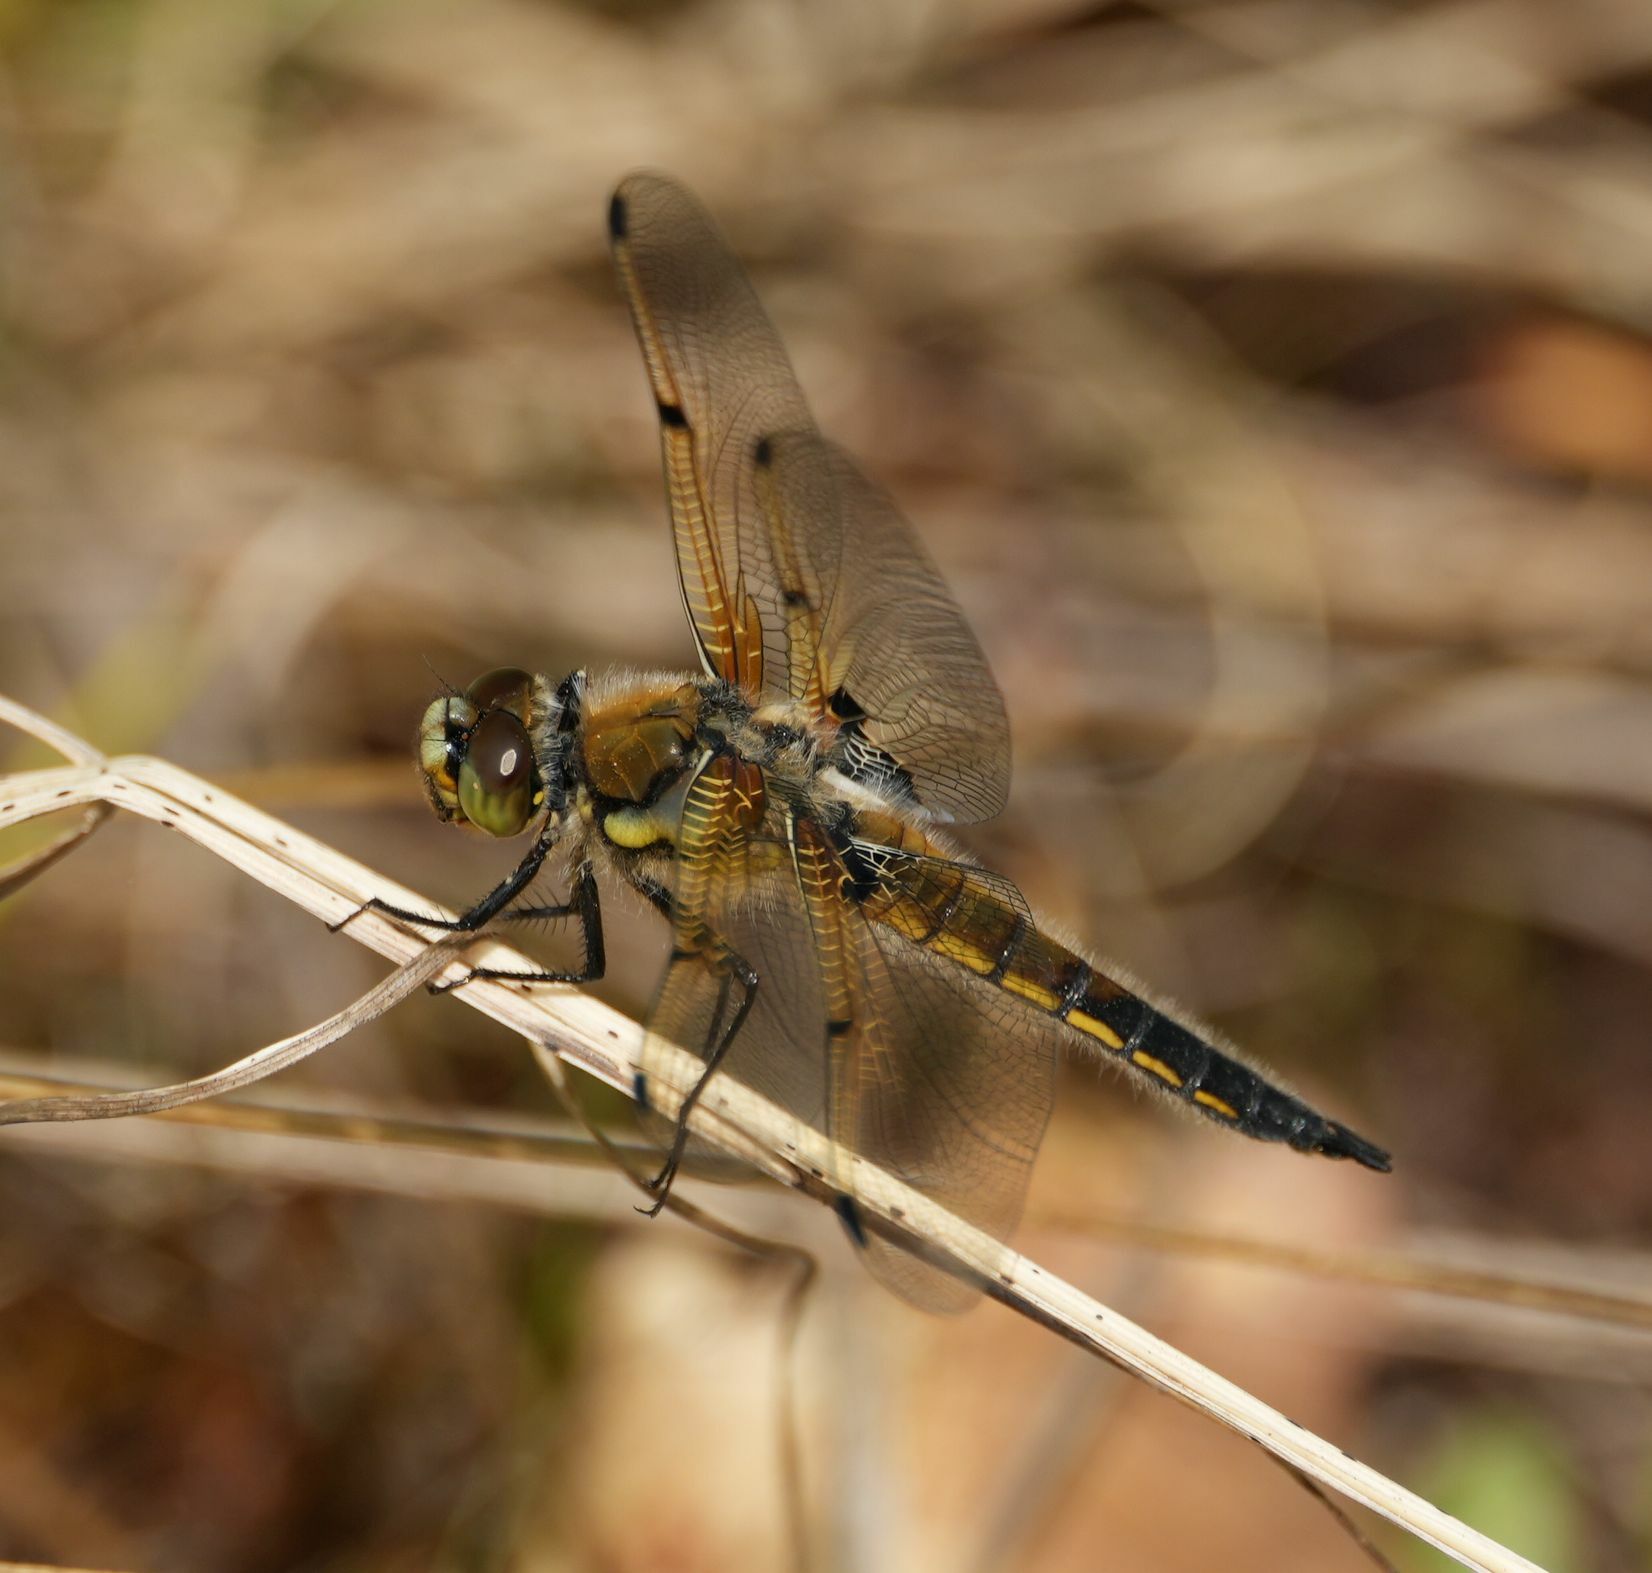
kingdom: Animalia
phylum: Arthropoda
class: Insecta
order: Odonata
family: Libellulidae
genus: Libellula
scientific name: Libellula quadrimaculata
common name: Four-spotted chaser
